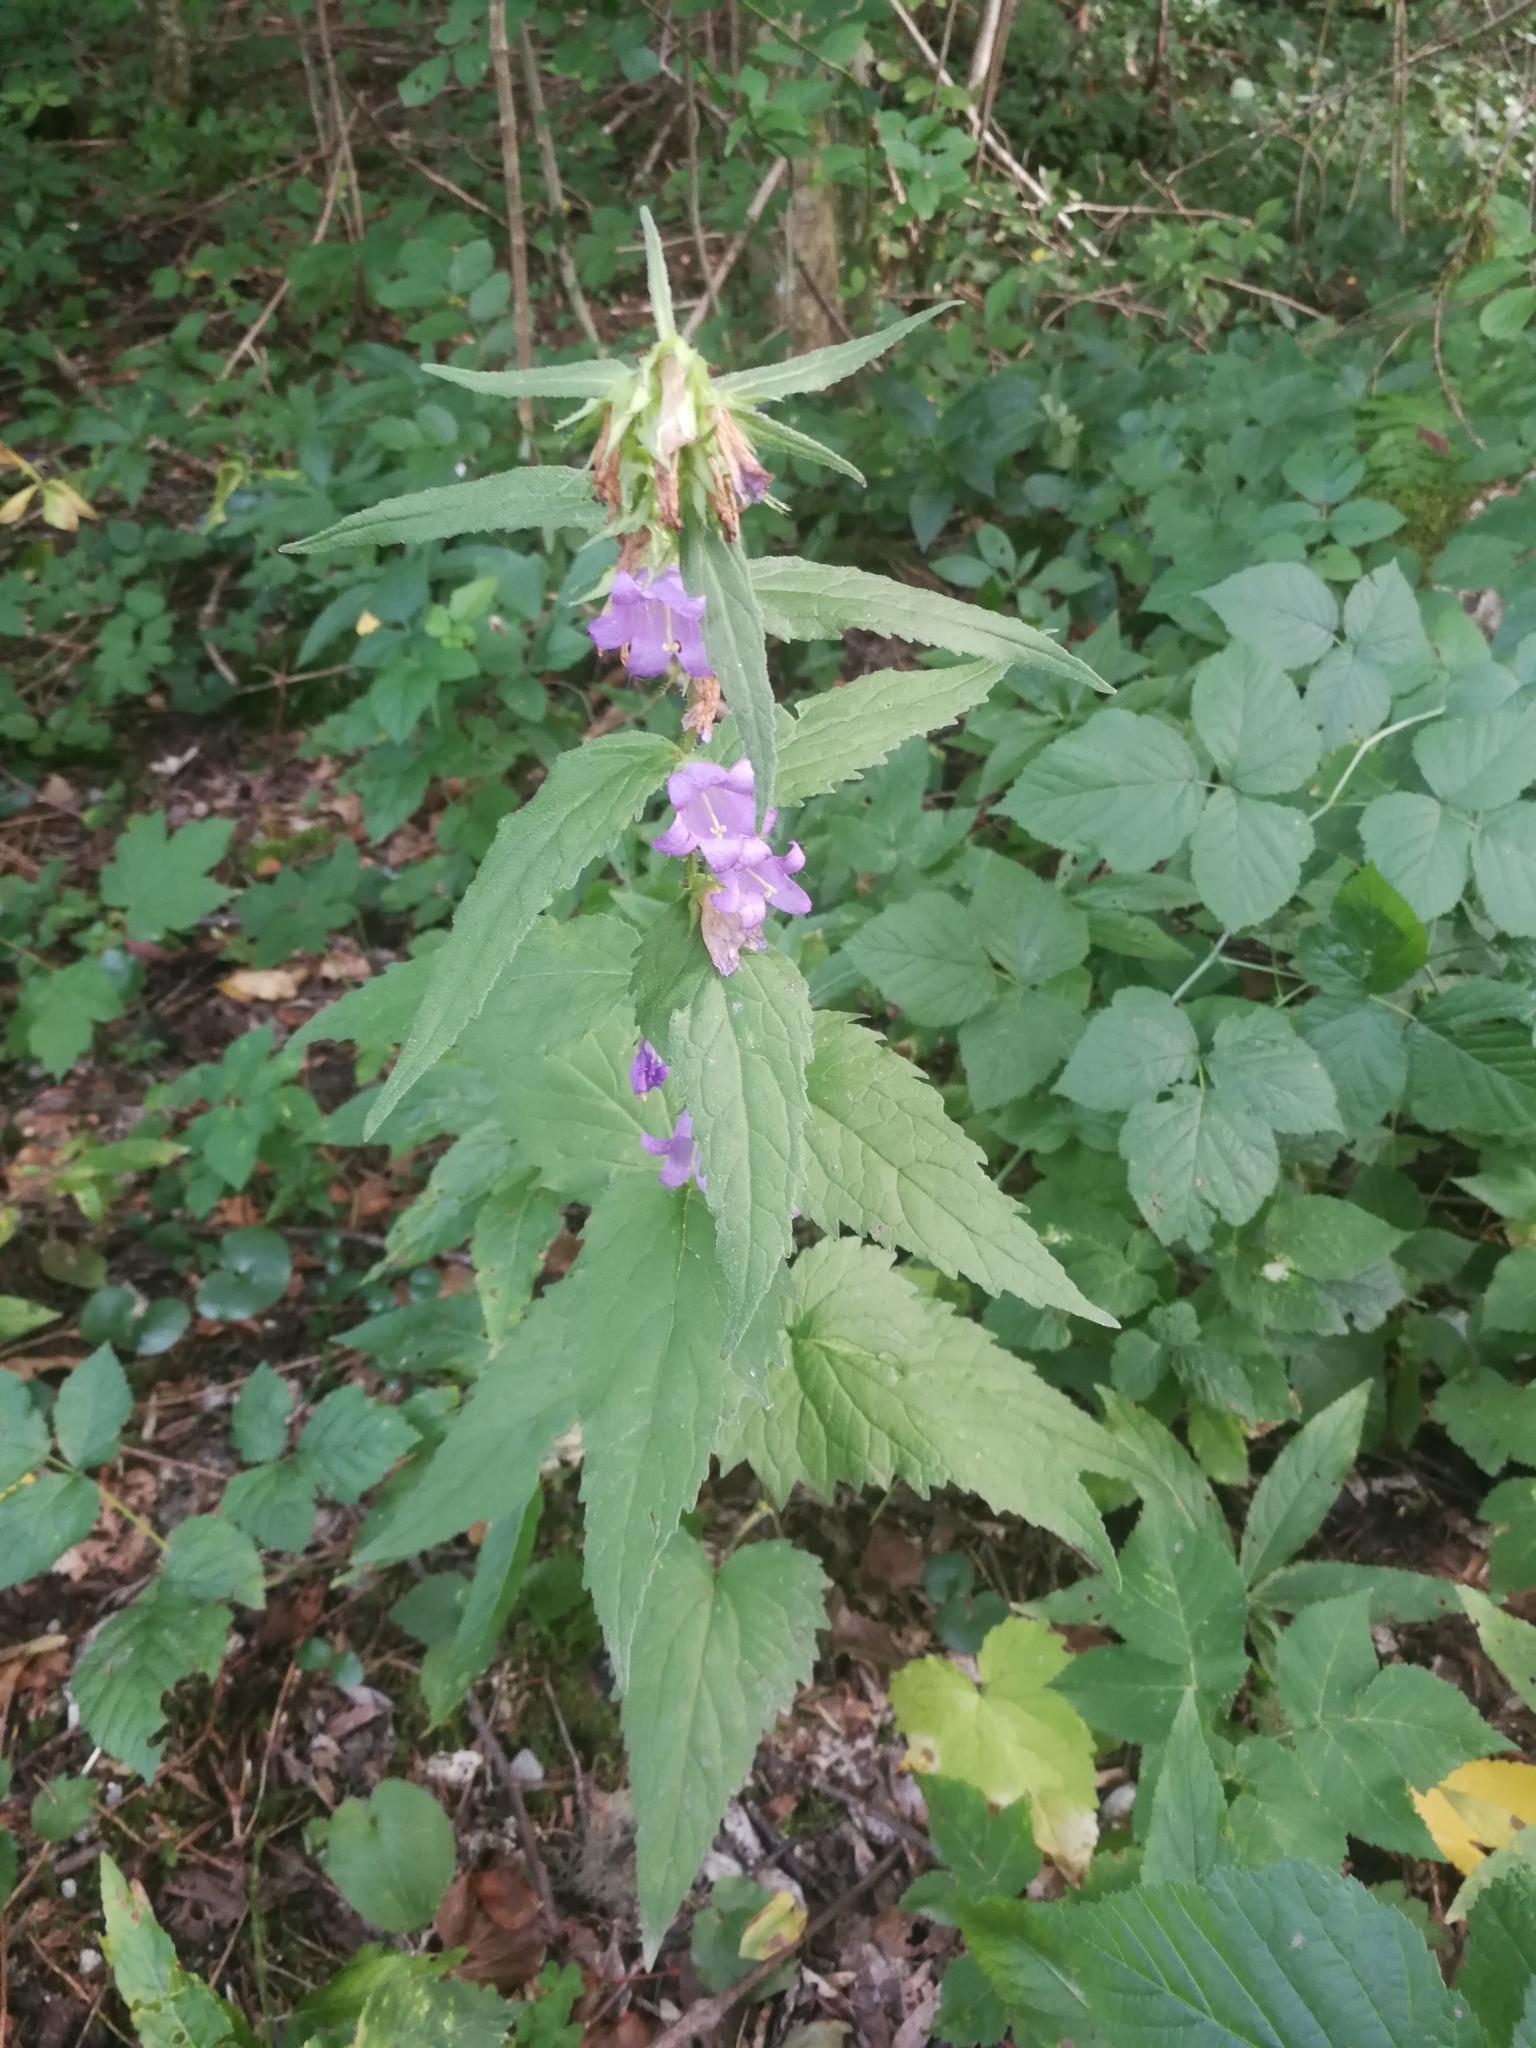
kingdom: Plantae
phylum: Tracheophyta
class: Magnoliopsida
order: Asterales
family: Campanulaceae
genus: Campanula
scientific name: Campanula trachelium
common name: Nettle-leaved bellflower
